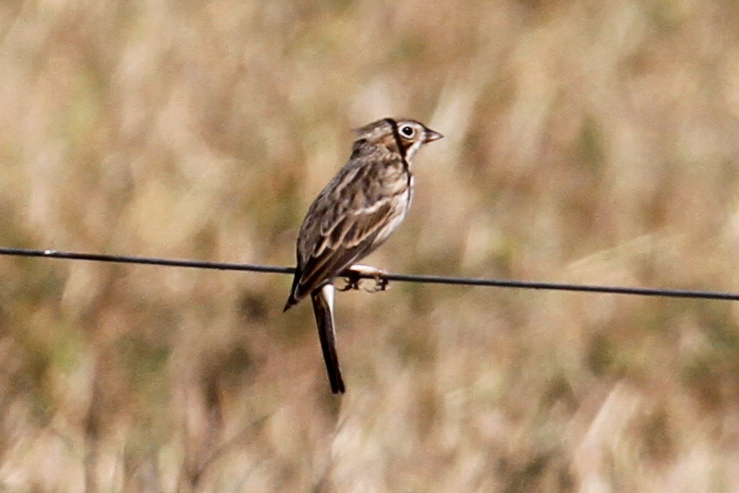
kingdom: Animalia
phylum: Chordata
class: Aves
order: Passeriformes
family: Passerellidae
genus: Pooecetes
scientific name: Pooecetes gramineus
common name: Vesper sparrow
